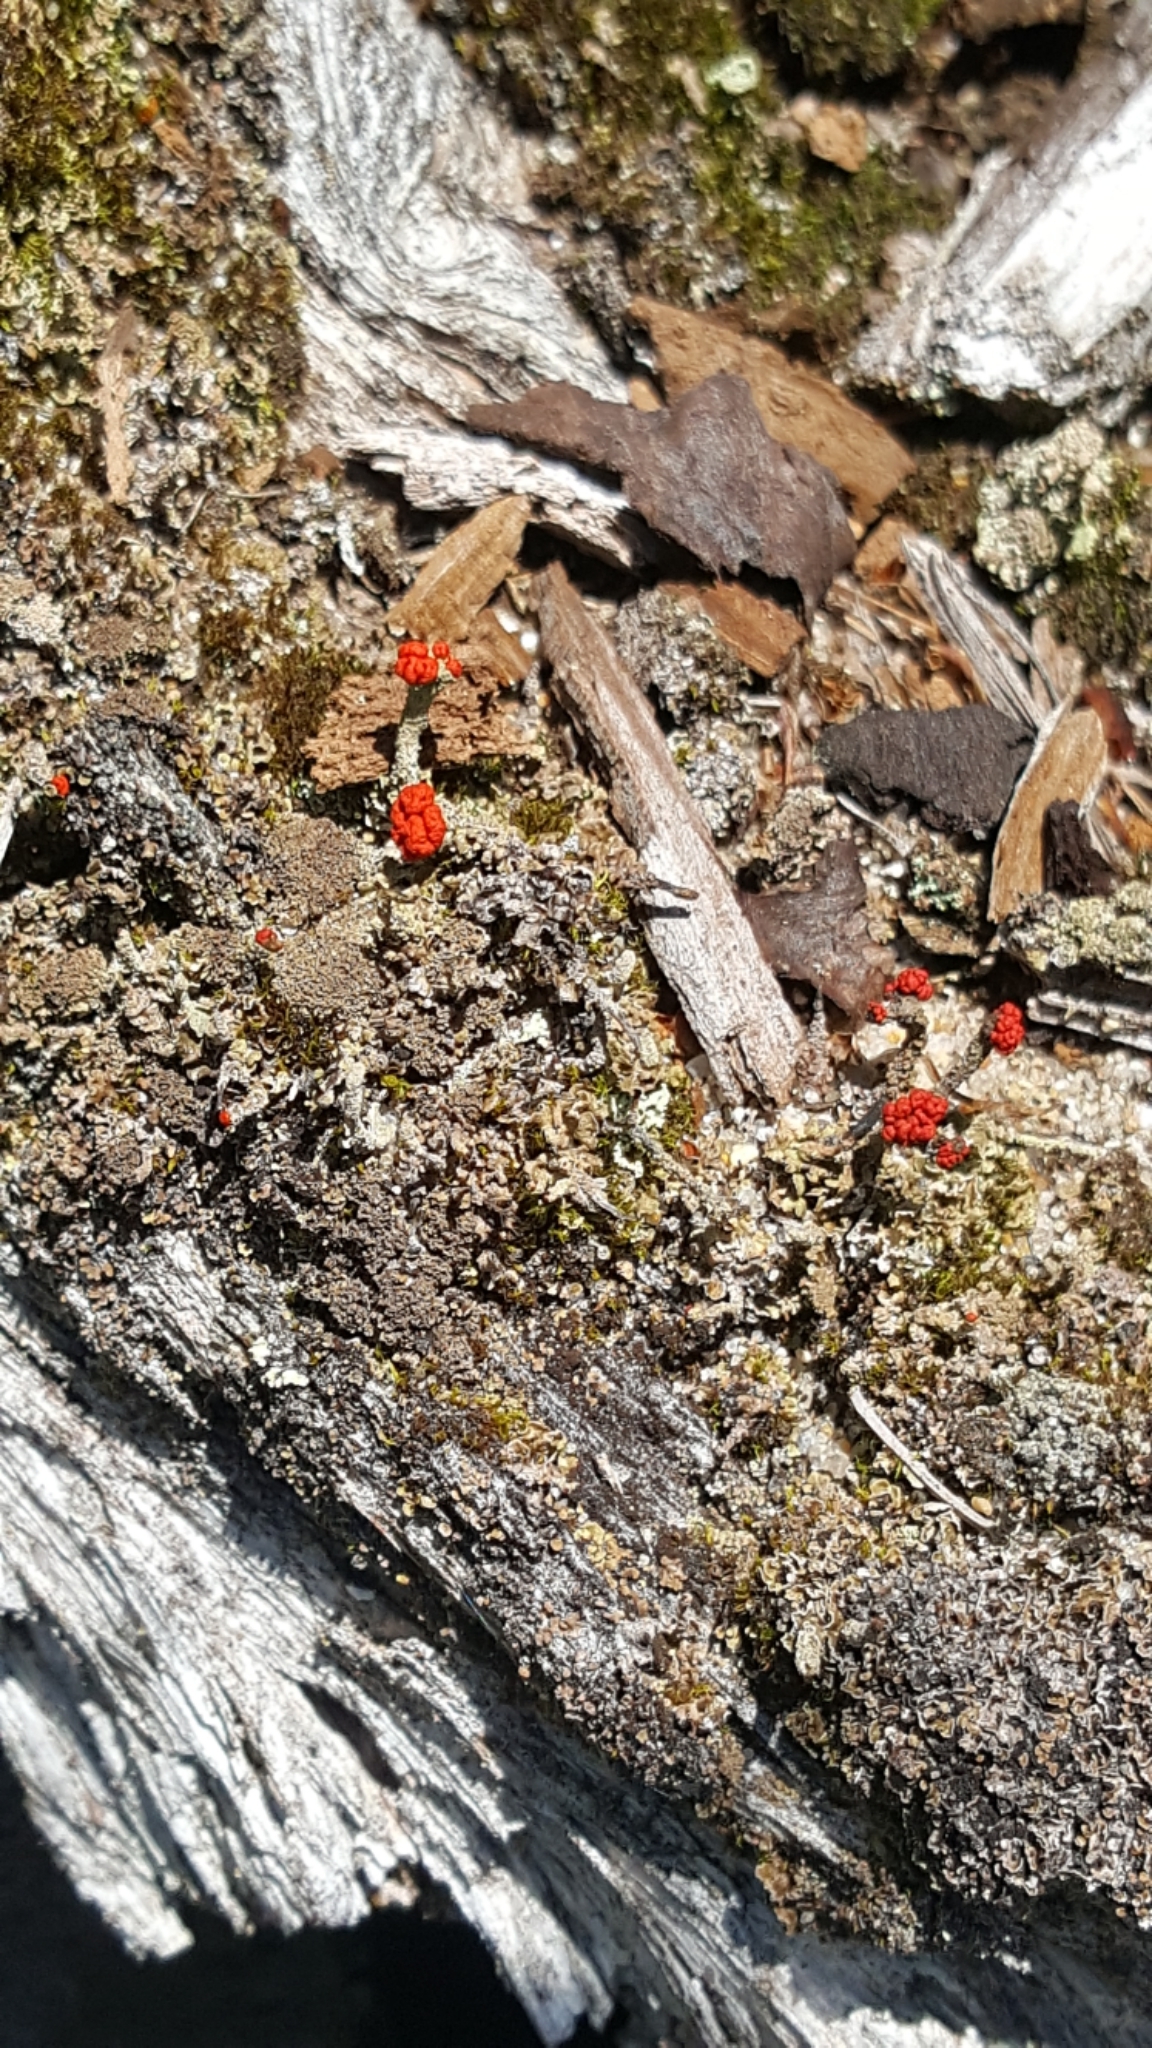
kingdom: Fungi
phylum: Ascomycota
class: Lecanoromycetes
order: Lecanorales
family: Cladoniaceae
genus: Cladonia
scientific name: Cladonia cristatella
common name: British soldier lichen
